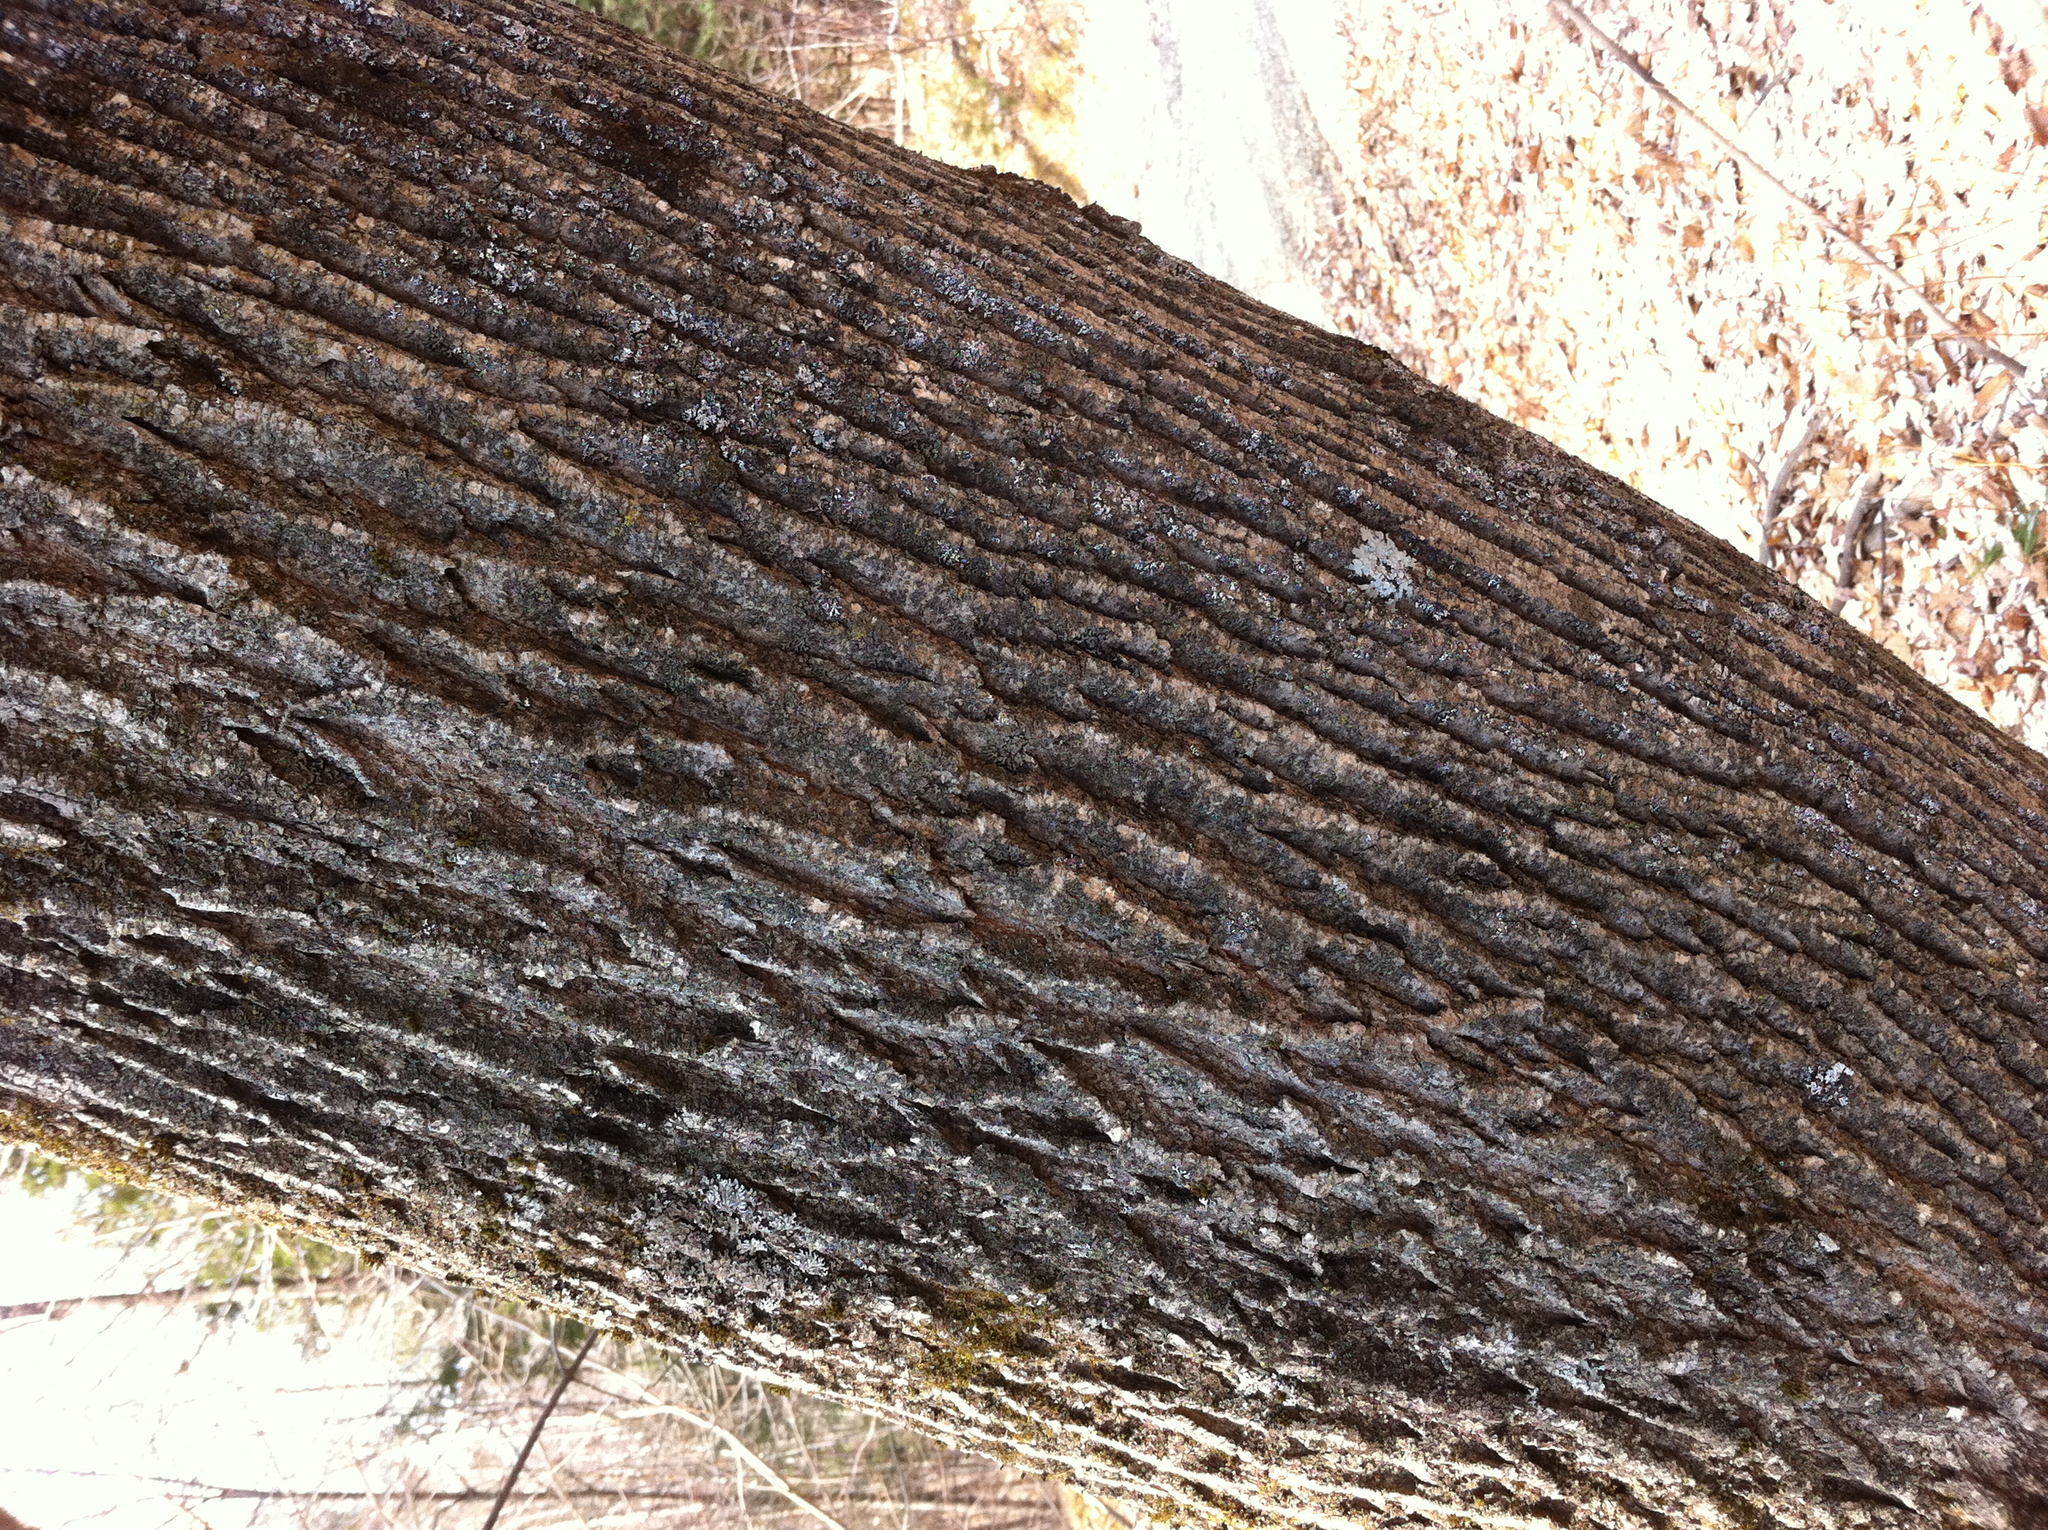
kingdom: Plantae
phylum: Tracheophyta
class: Magnoliopsida
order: Lamiales
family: Oleaceae
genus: Fraxinus
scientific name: Fraxinus americana
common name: White ash
